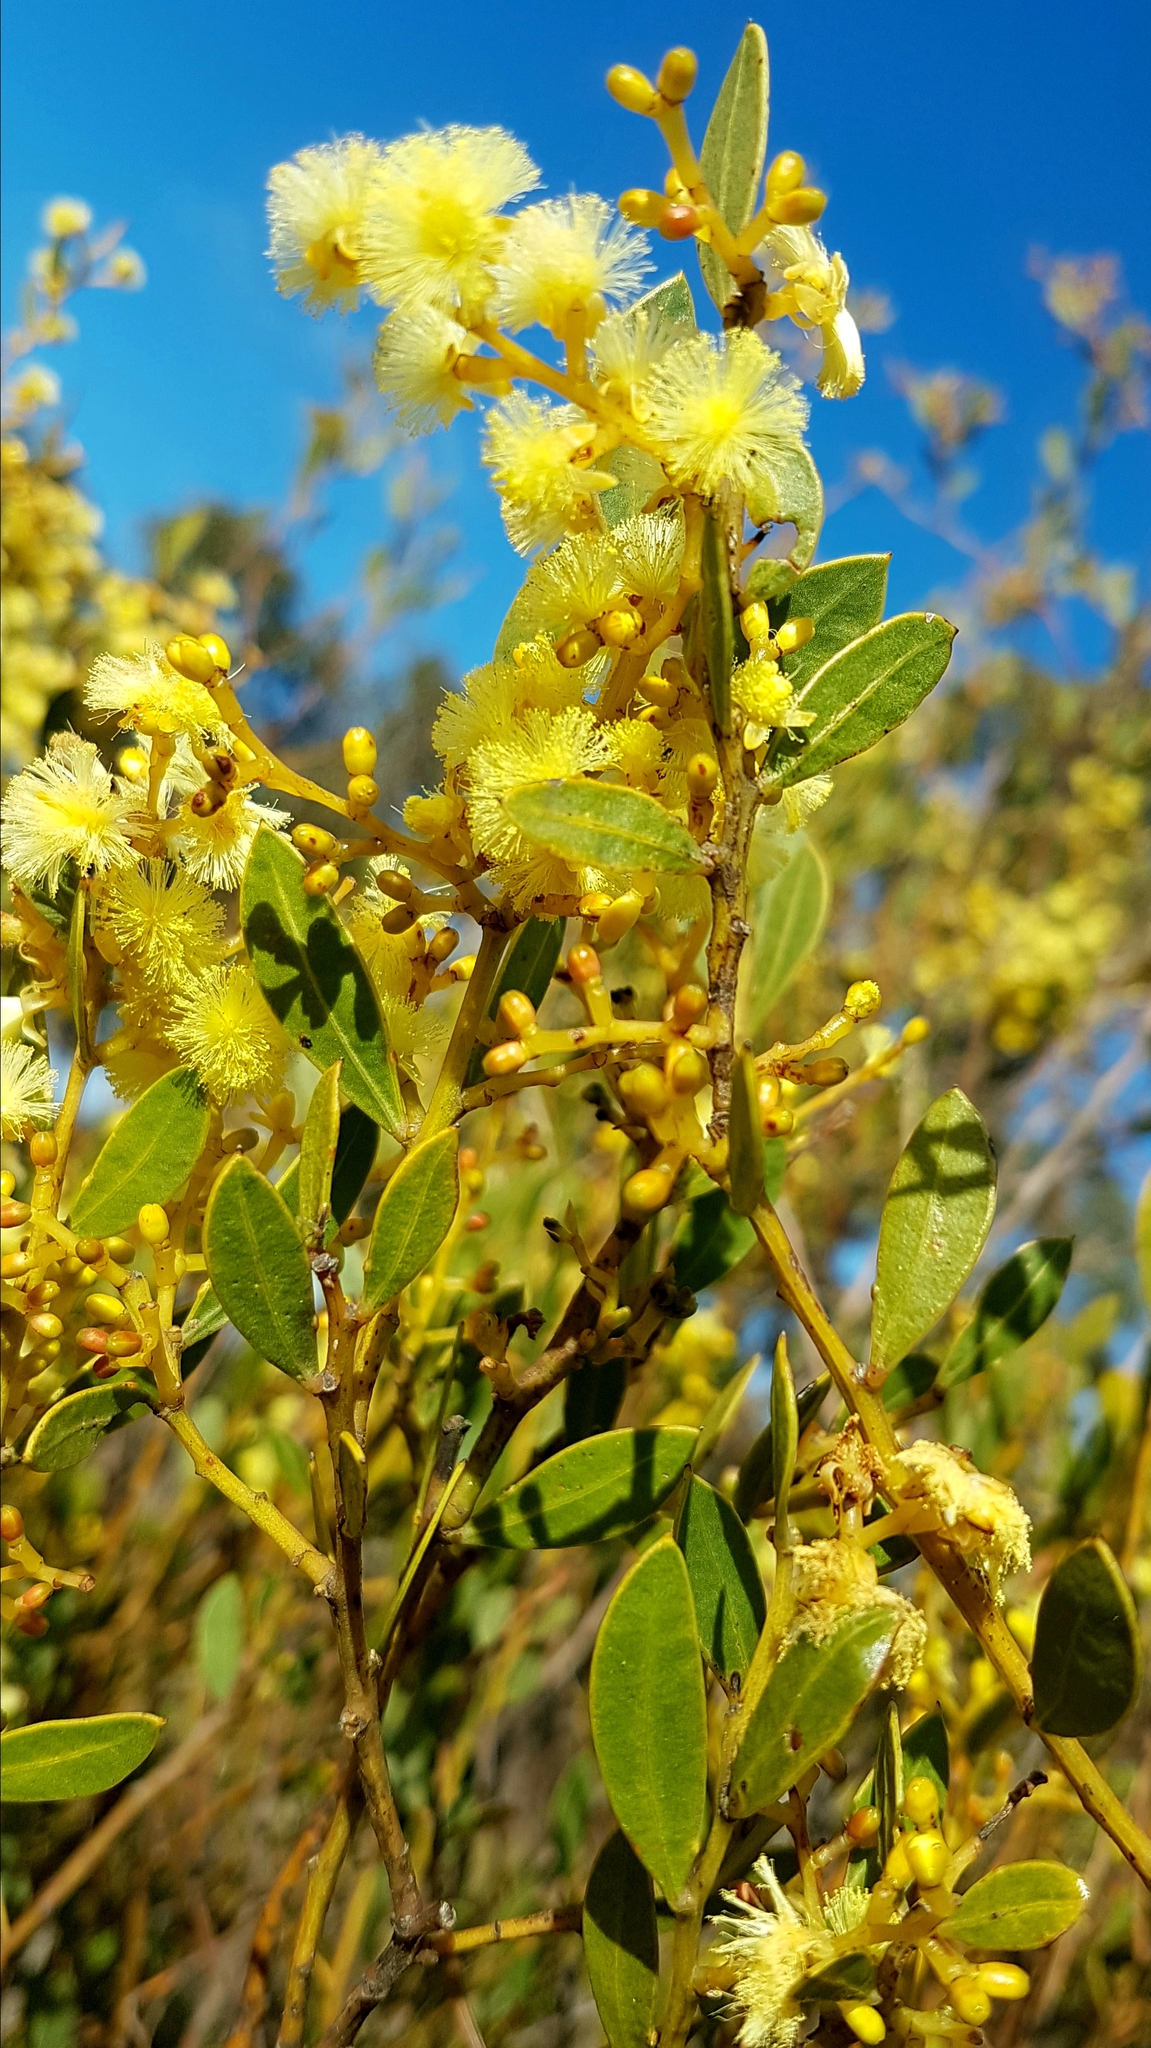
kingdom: Plantae
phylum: Tracheophyta
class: Magnoliopsida
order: Fabales
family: Fabaceae
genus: Acacia
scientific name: Acacia myrtifolia
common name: Myrtle wattle
